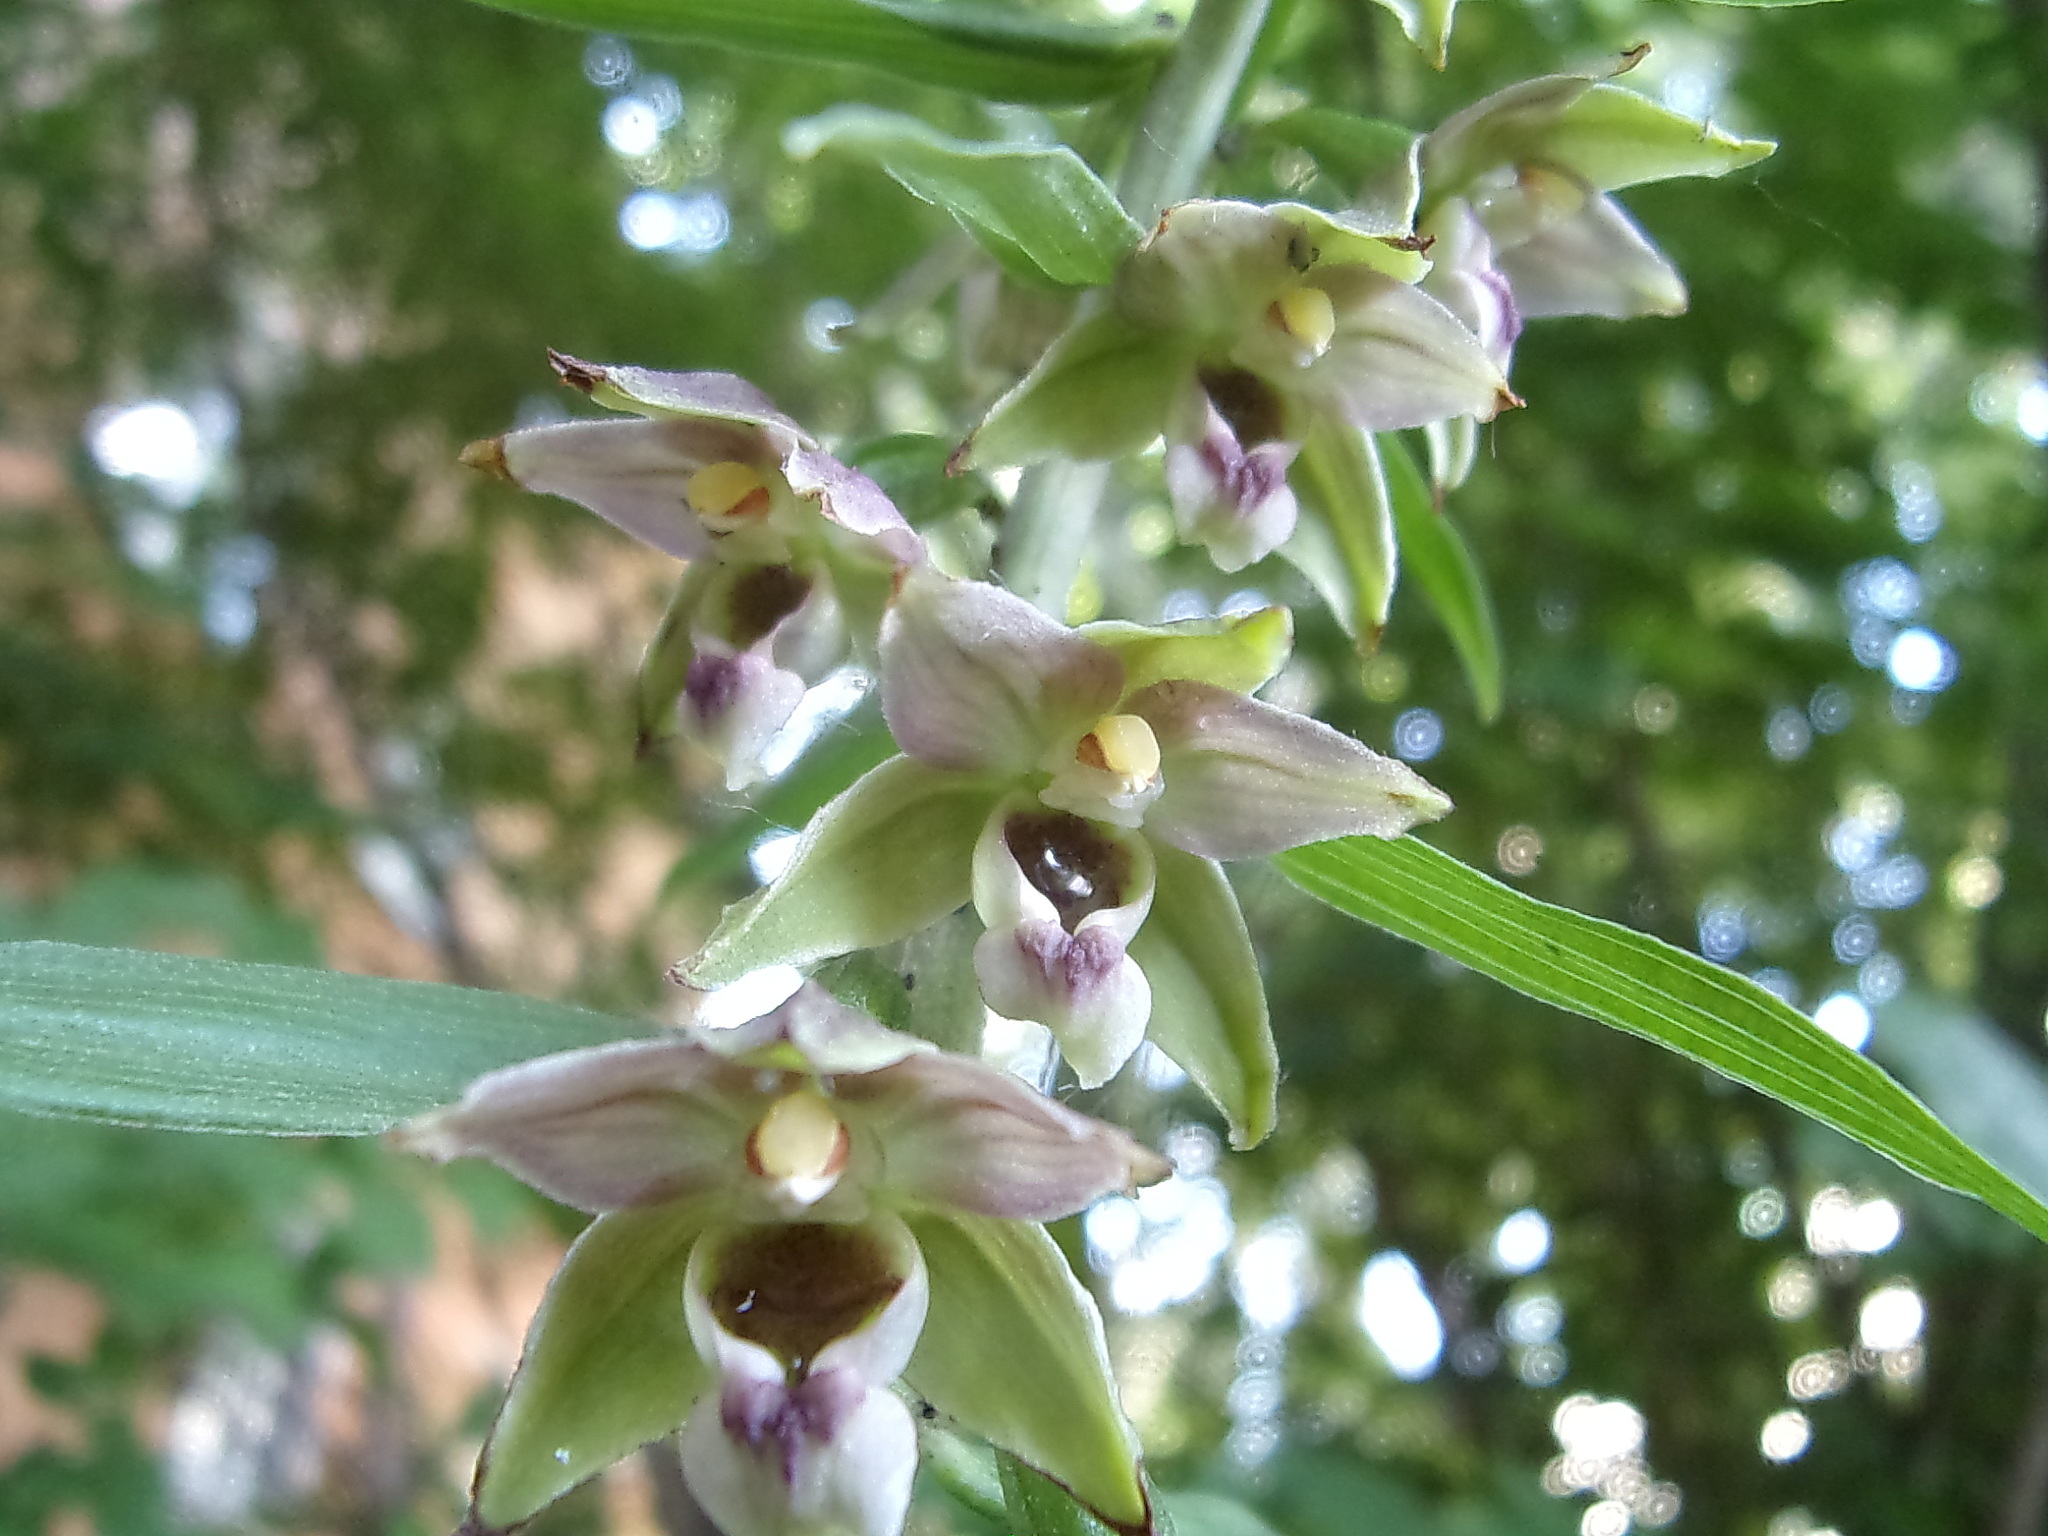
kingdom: Plantae
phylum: Tracheophyta
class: Liliopsida
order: Asparagales
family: Orchidaceae
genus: Epipactis
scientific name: Epipactis helleborine
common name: Broad-leaved helleborine
